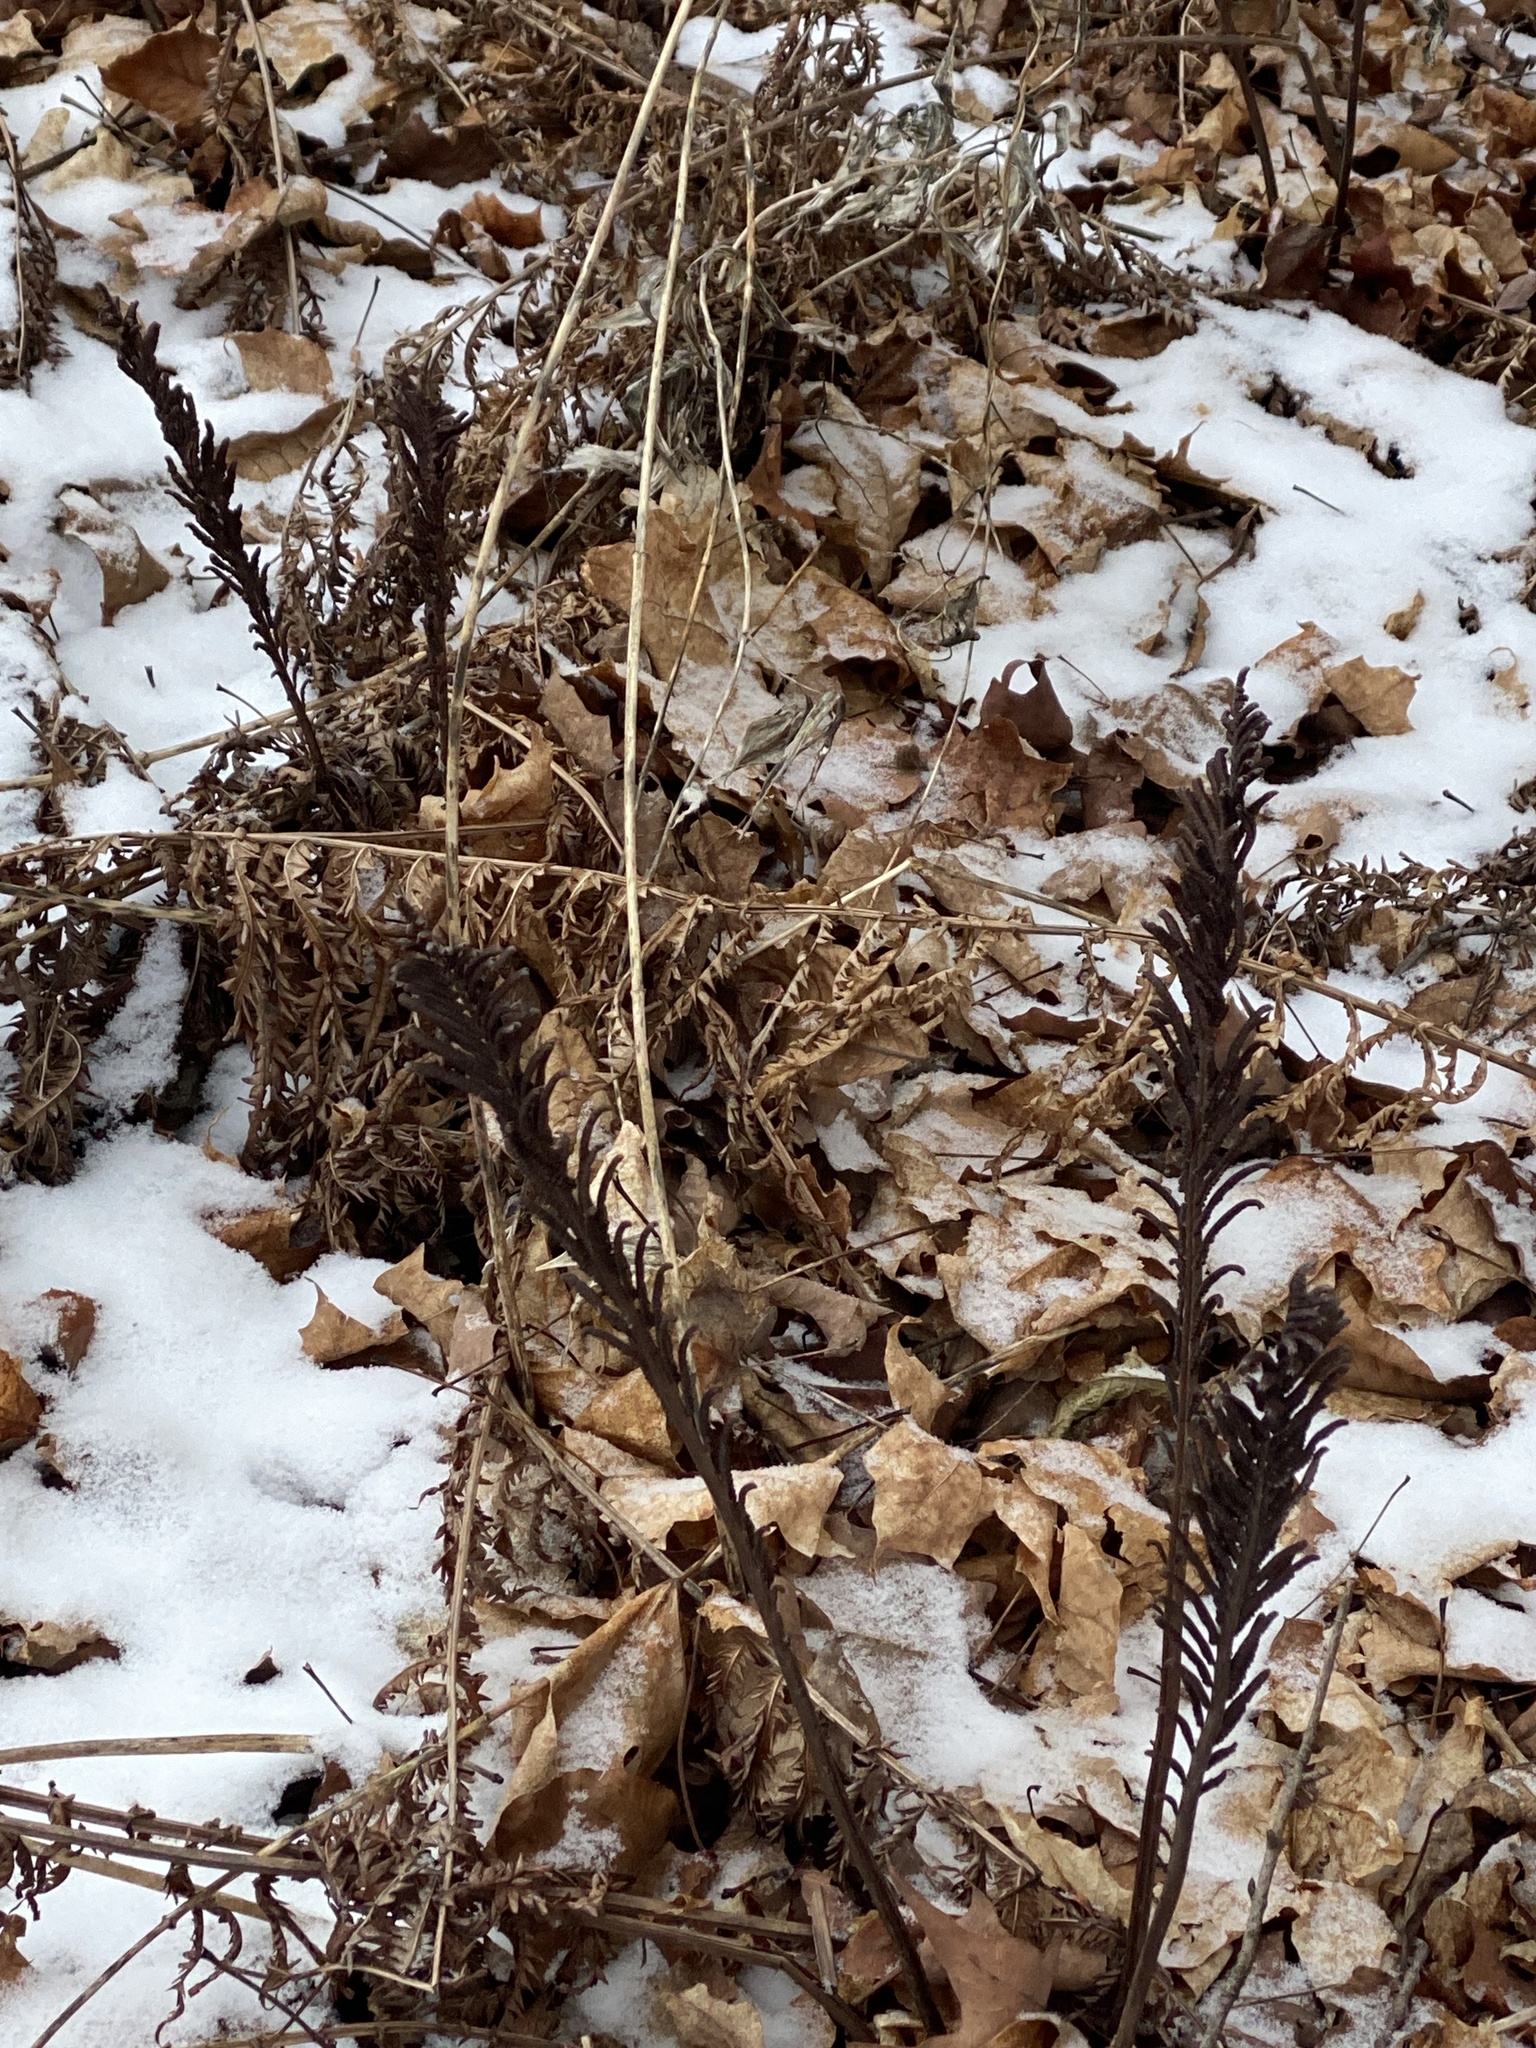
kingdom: Plantae
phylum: Tracheophyta
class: Polypodiopsida
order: Polypodiales
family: Onocleaceae
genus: Matteuccia
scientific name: Matteuccia struthiopteris
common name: Ostrich fern
